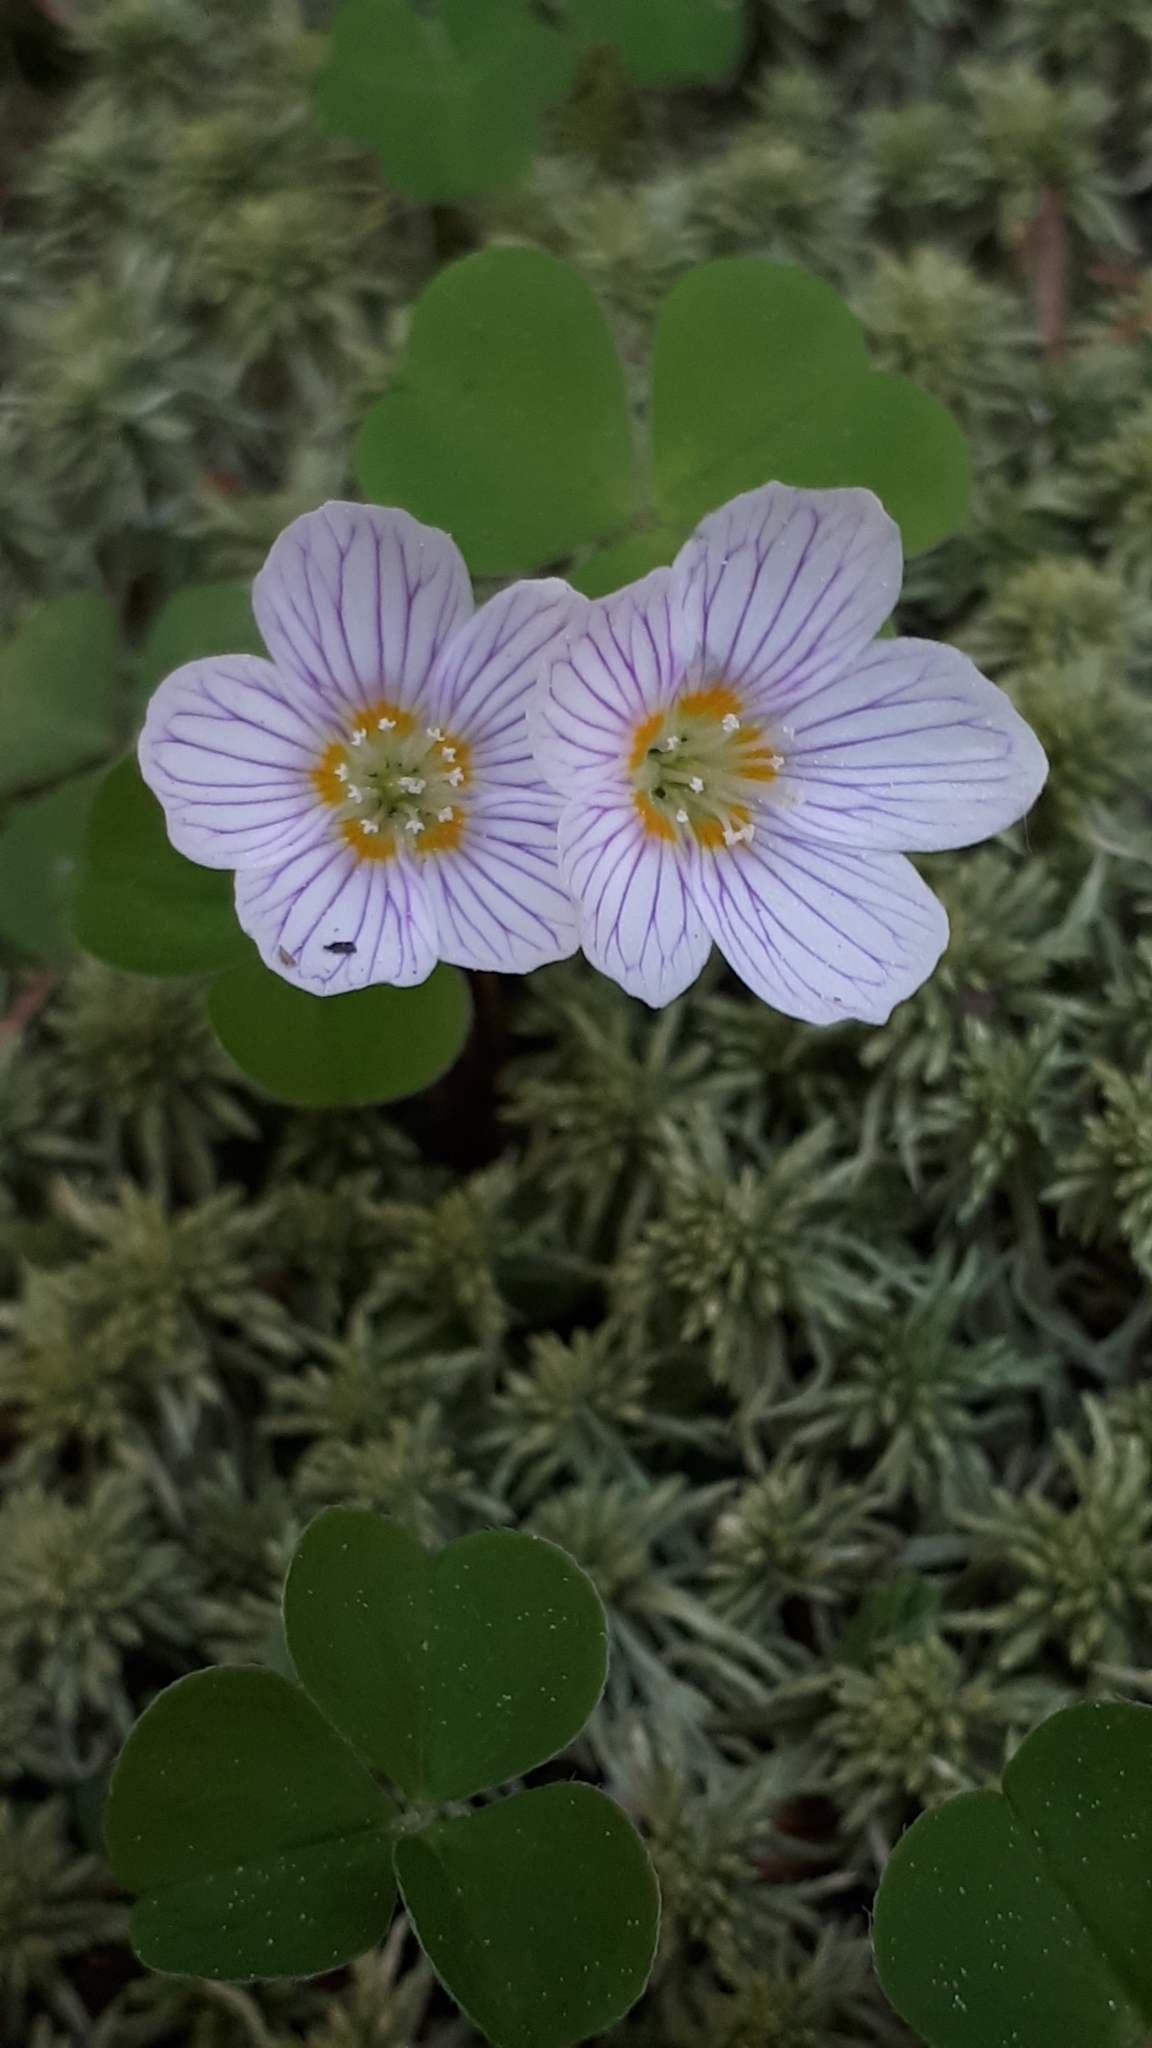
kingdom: Plantae
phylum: Tracheophyta
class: Magnoliopsida
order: Oxalidales
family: Oxalidaceae
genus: Oxalis
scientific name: Oxalis acetosella
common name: Wood-sorrel
